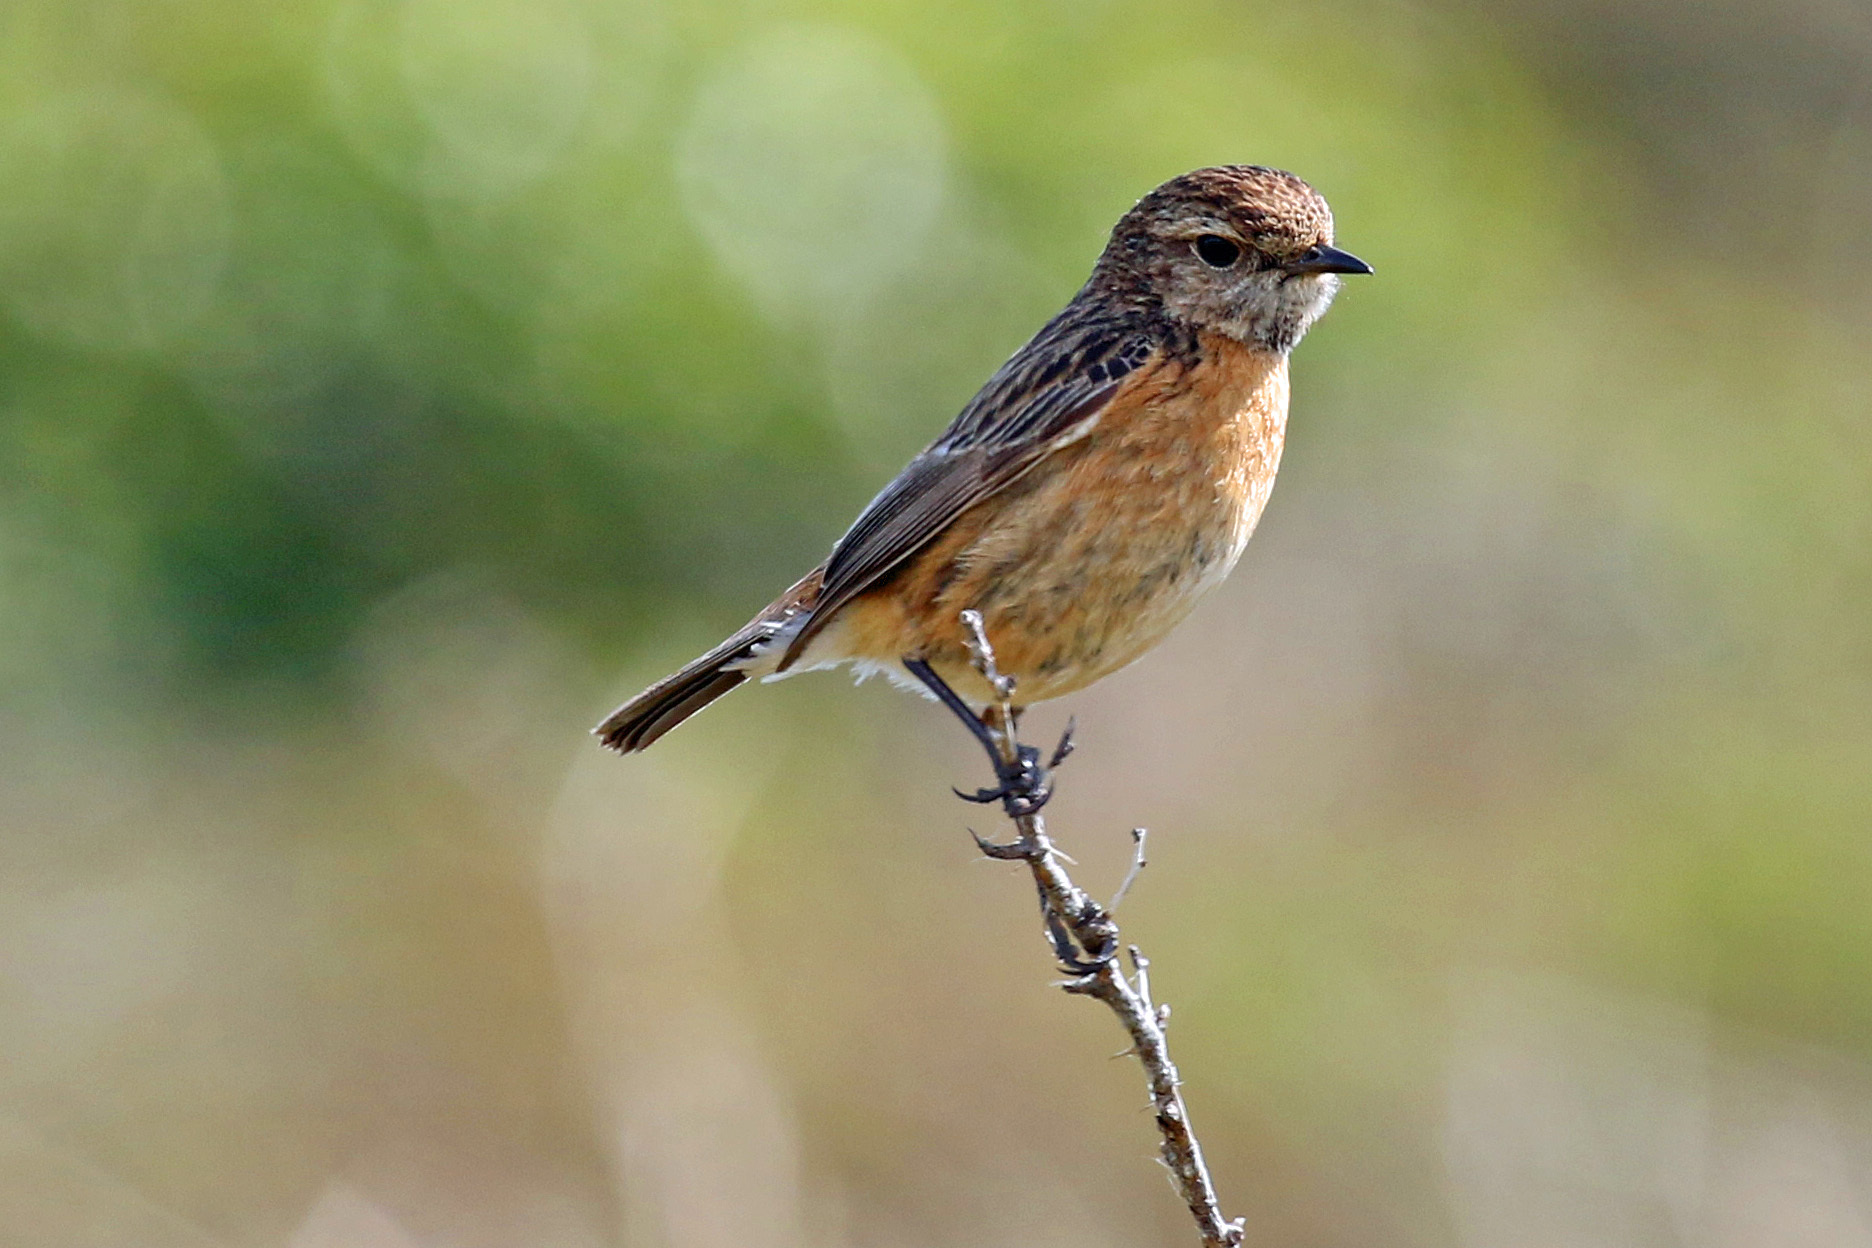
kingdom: Animalia
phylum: Chordata
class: Aves
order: Passeriformes
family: Muscicapidae
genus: Saxicola
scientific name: Saxicola rubicola
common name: European stonechat
